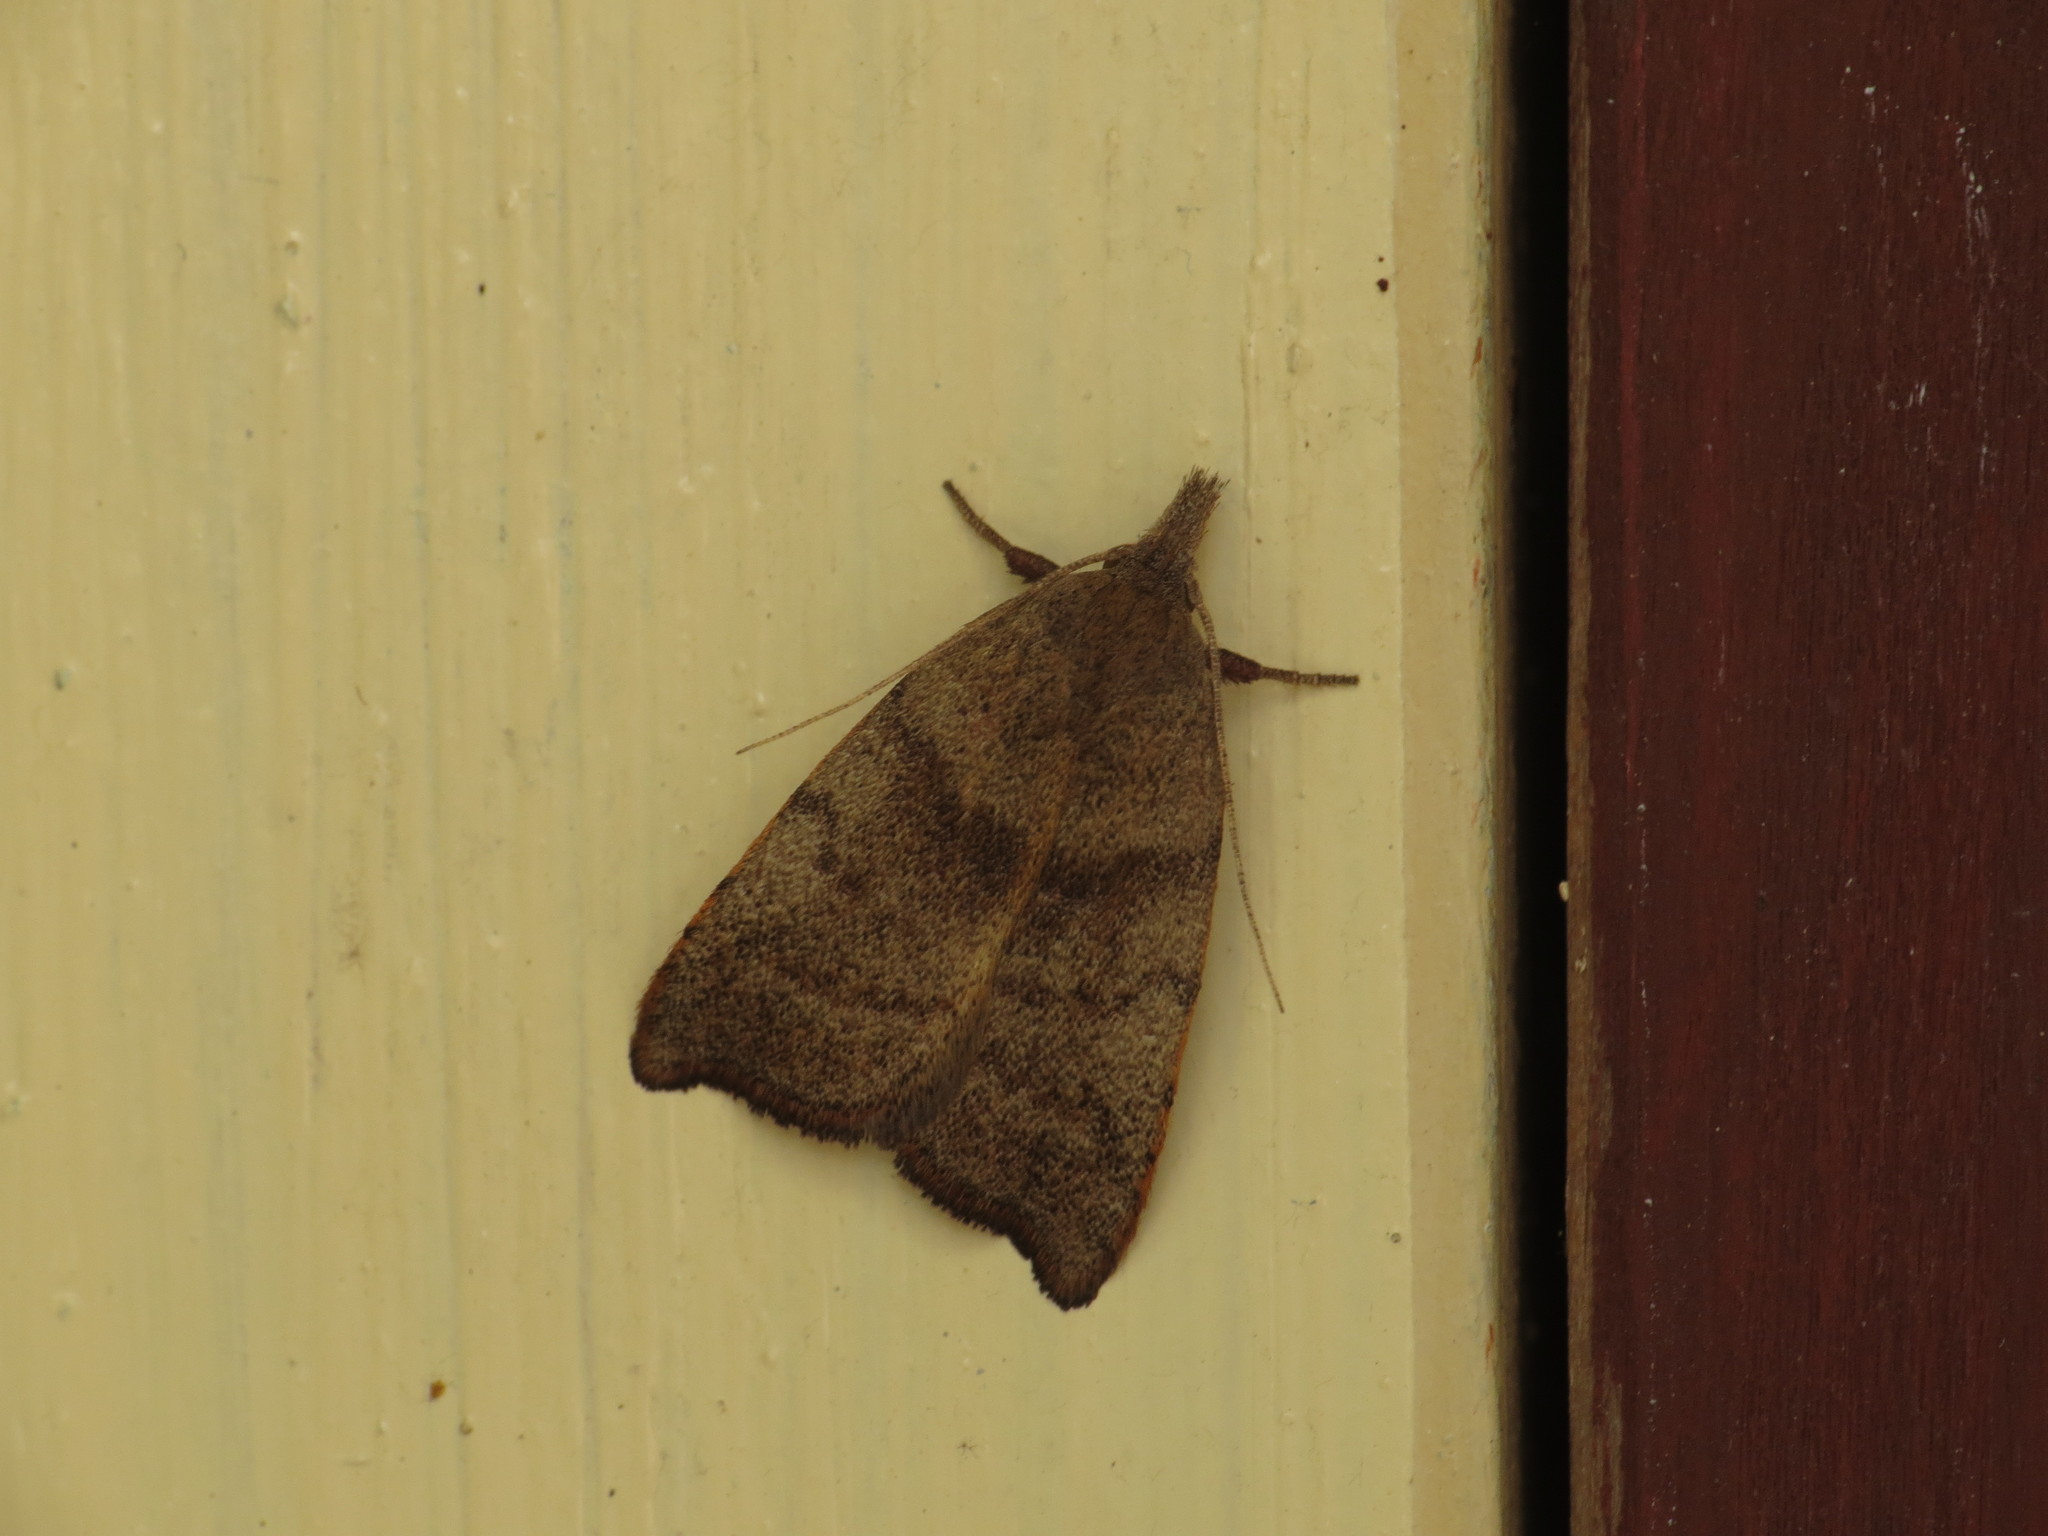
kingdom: Animalia
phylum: Arthropoda
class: Insecta
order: Lepidoptera
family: Oecophoridae
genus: Tortricopsis
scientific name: Tortricopsis euryphanella
